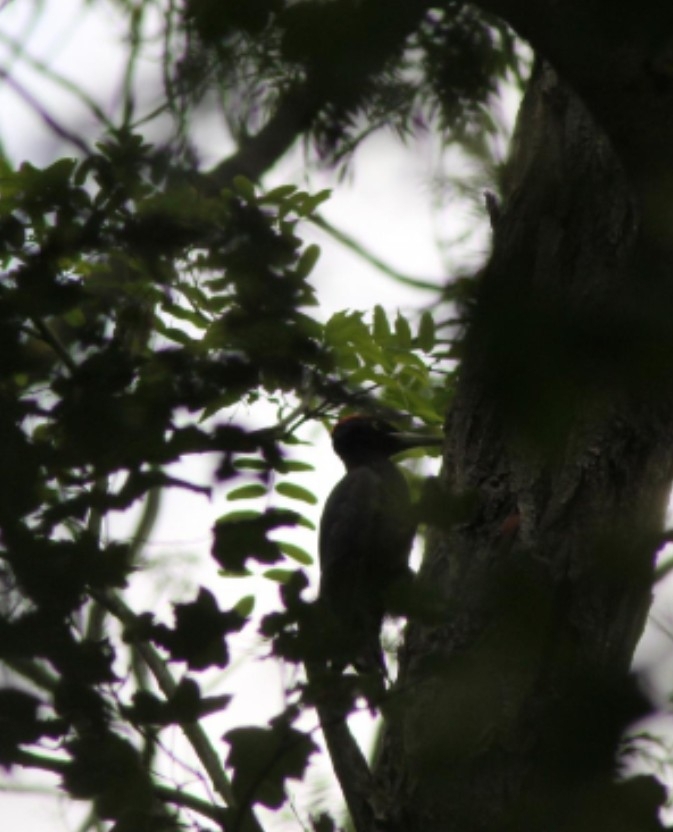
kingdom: Animalia
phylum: Chordata
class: Aves
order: Piciformes
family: Picidae
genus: Dryocopus
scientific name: Dryocopus martius
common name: Black woodpecker
